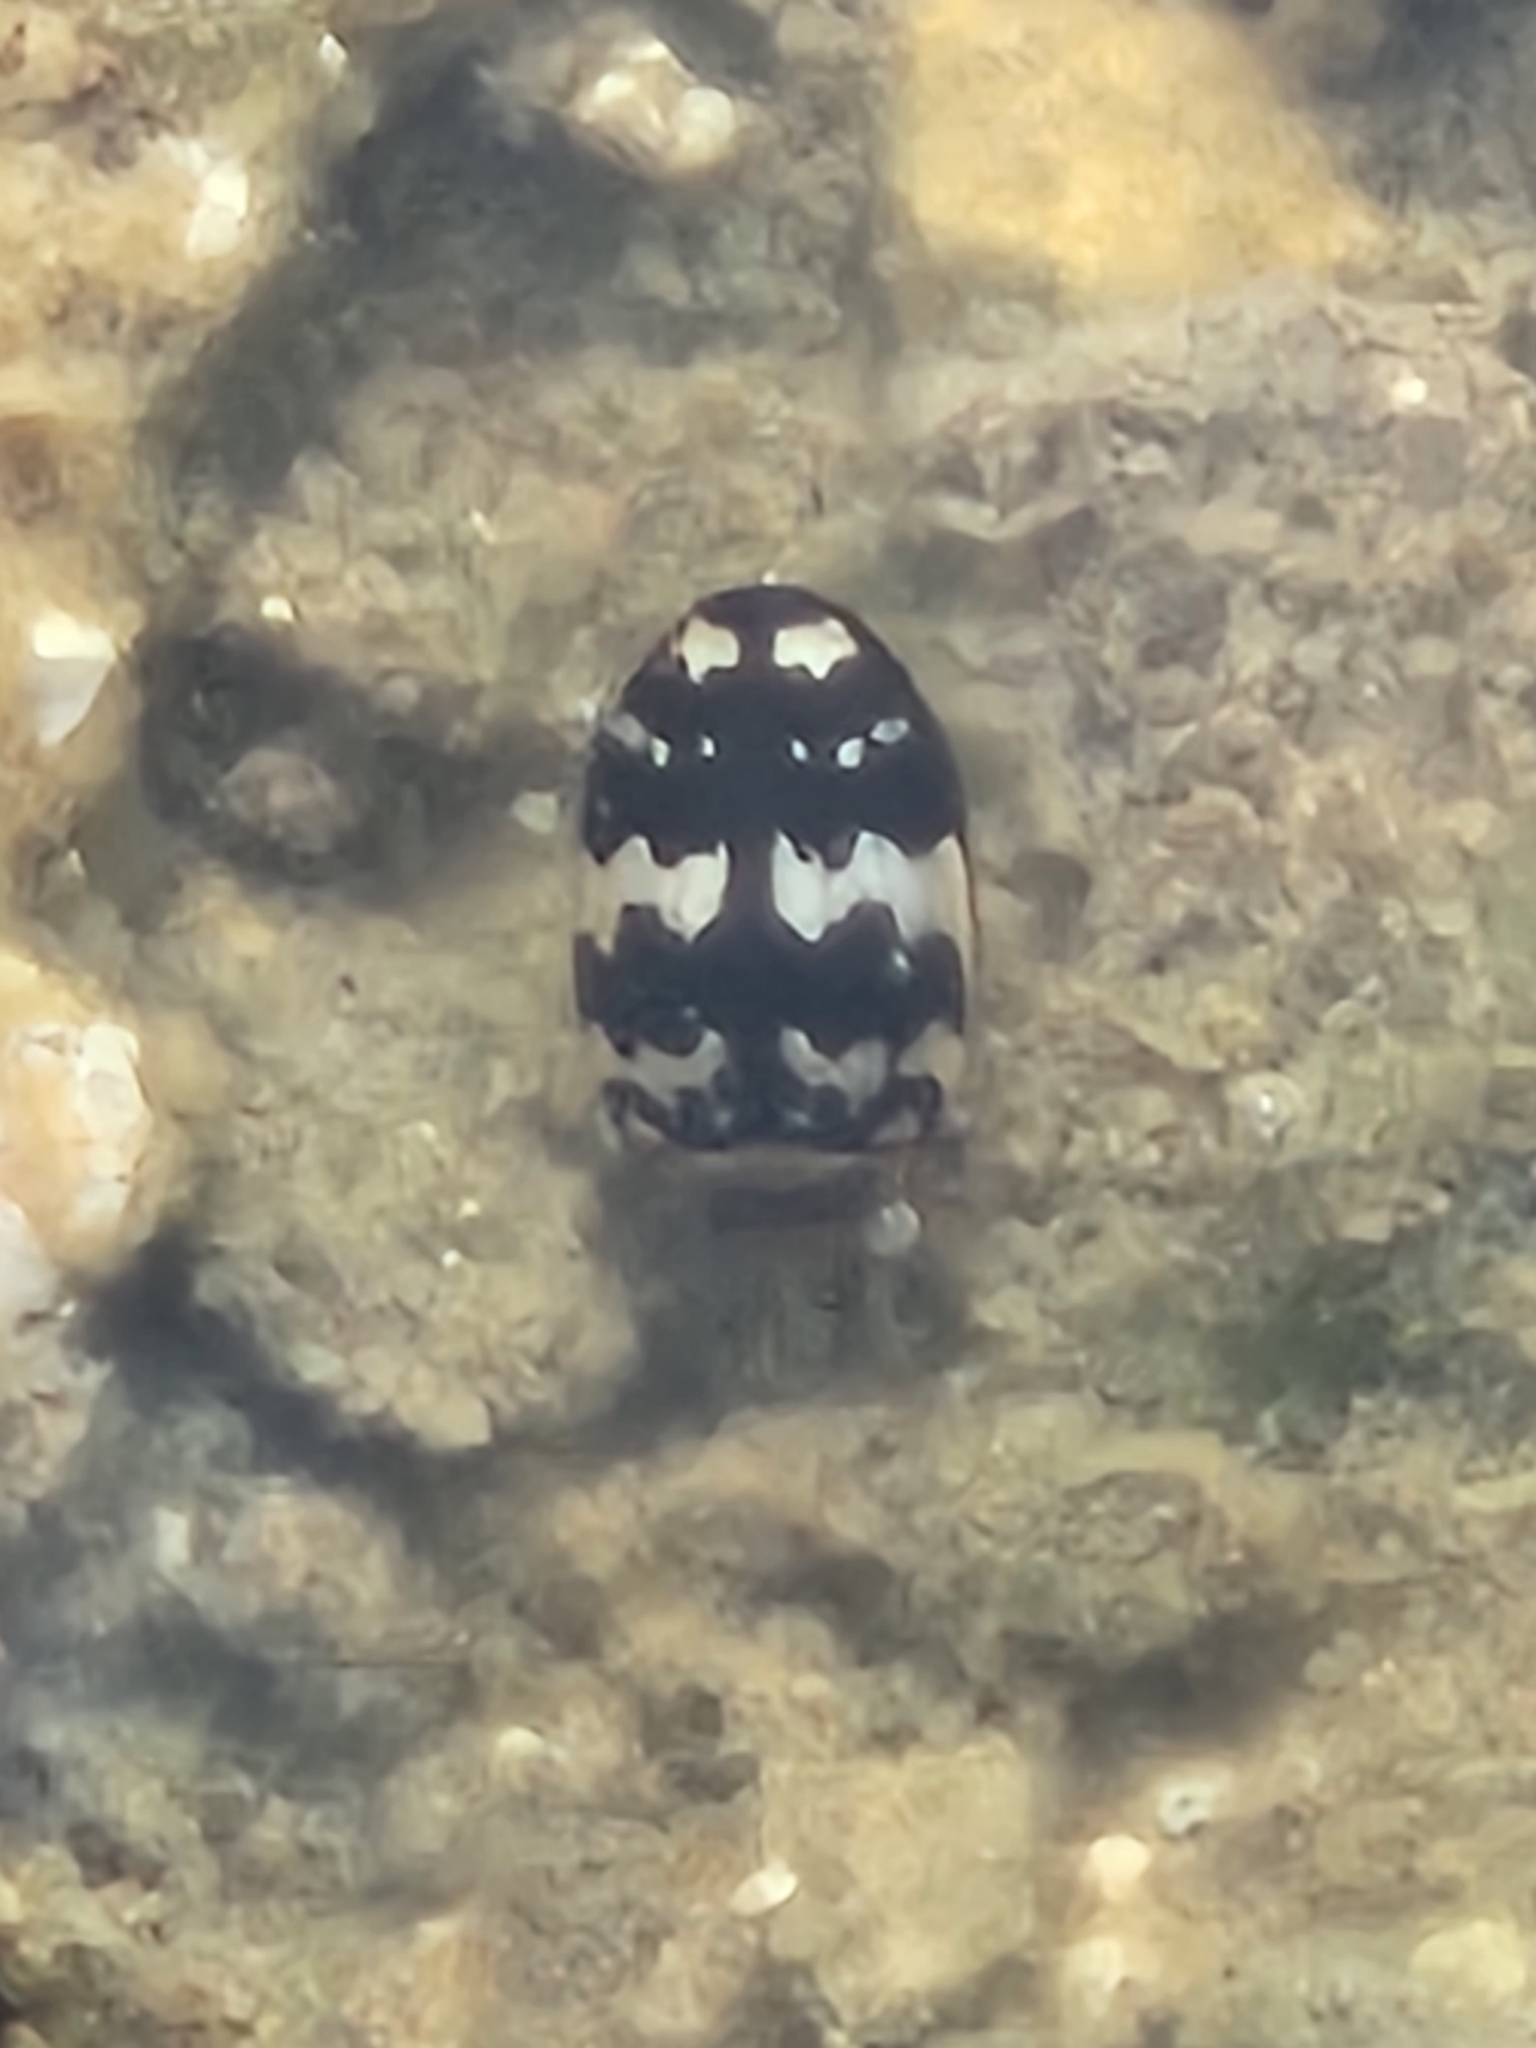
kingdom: Animalia
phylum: Arthropoda
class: Insecta
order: Coleoptera
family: Dytiscidae
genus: Laccophilus
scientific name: Laccophilus pictus
